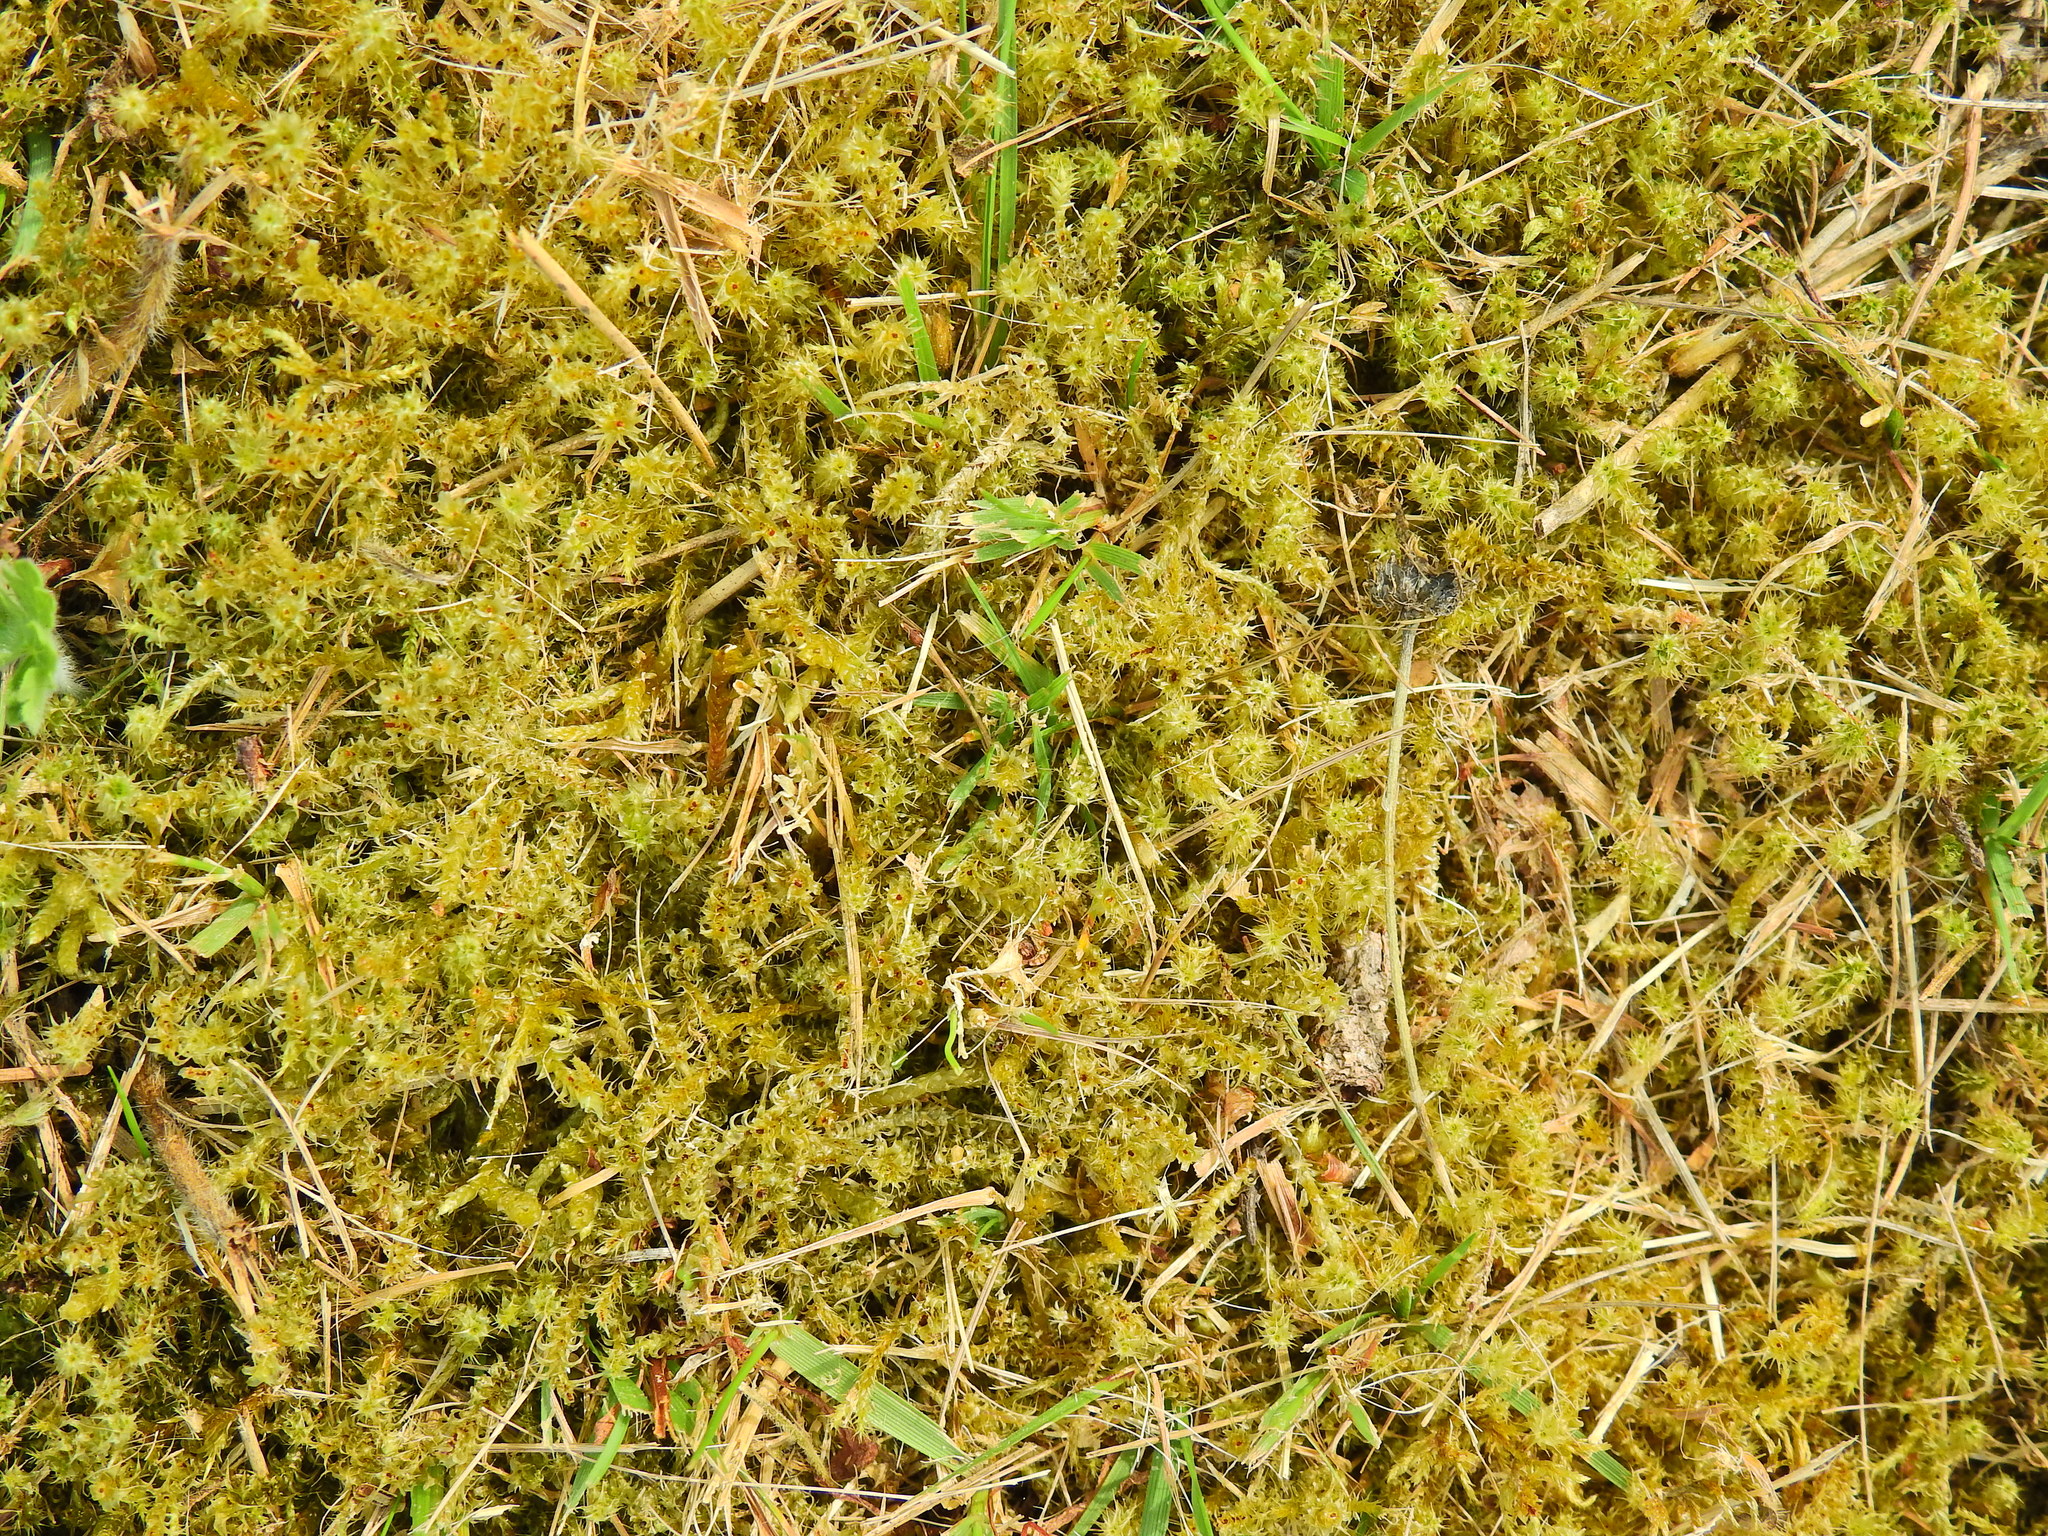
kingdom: Plantae
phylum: Bryophyta
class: Bryopsida
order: Hypnales
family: Hylocomiaceae
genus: Rhytidiadelphus
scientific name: Rhytidiadelphus squarrosus
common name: Springy turf-moss
